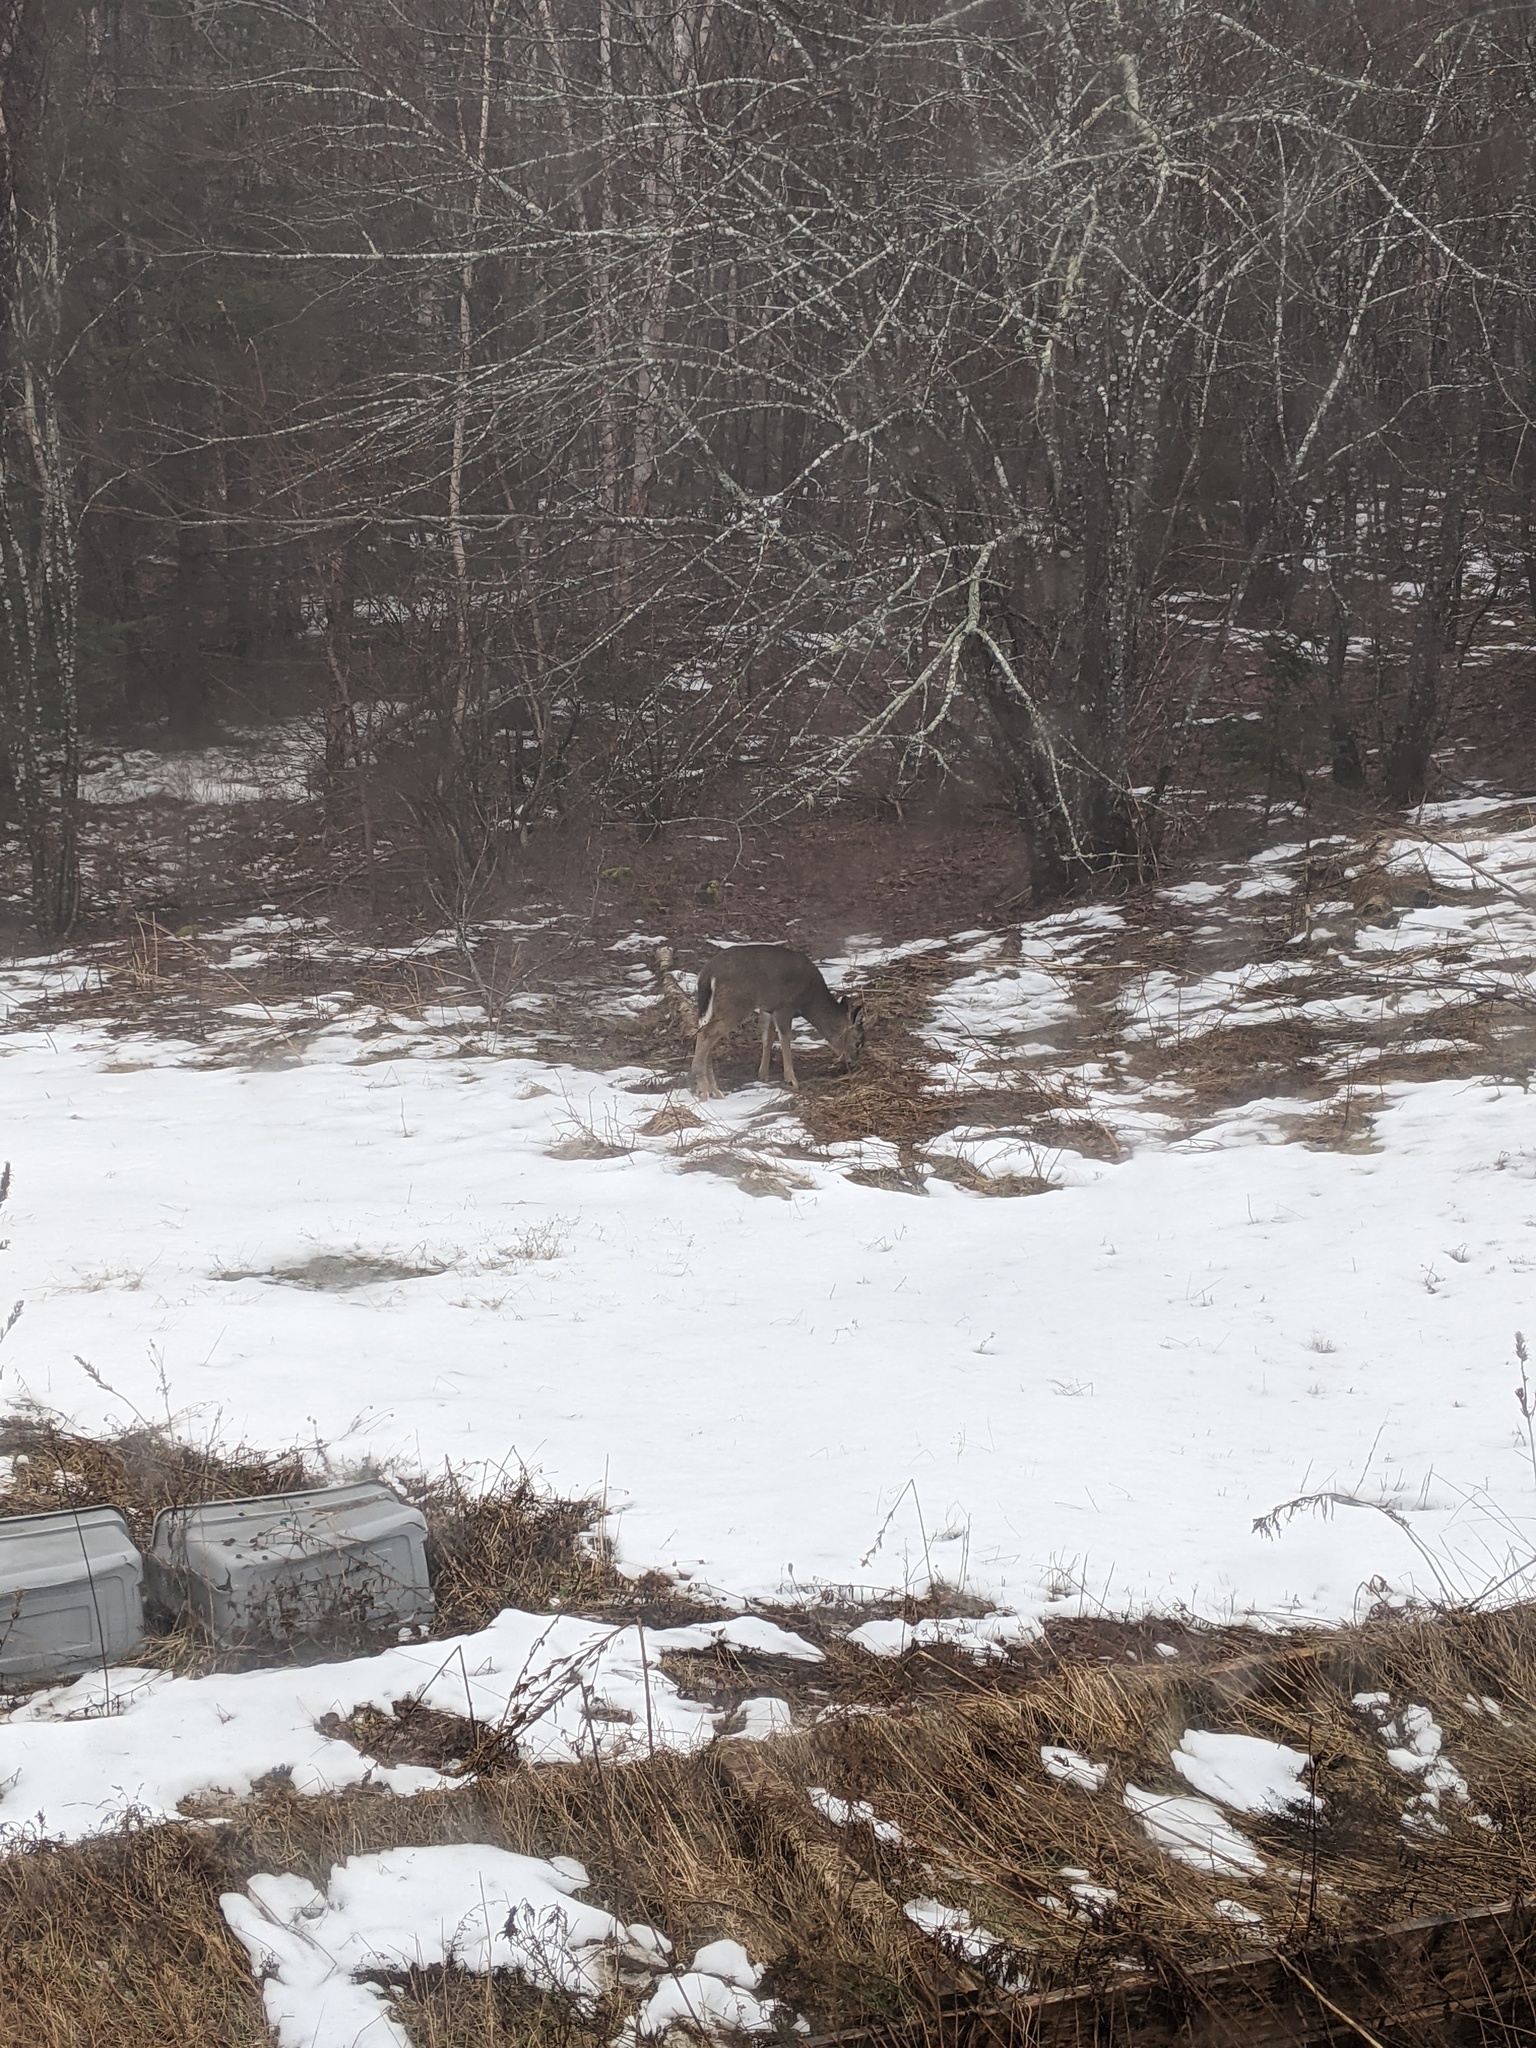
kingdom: Animalia
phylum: Chordata
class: Mammalia
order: Artiodactyla
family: Cervidae
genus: Odocoileus
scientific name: Odocoileus virginianus
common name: White-tailed deer
